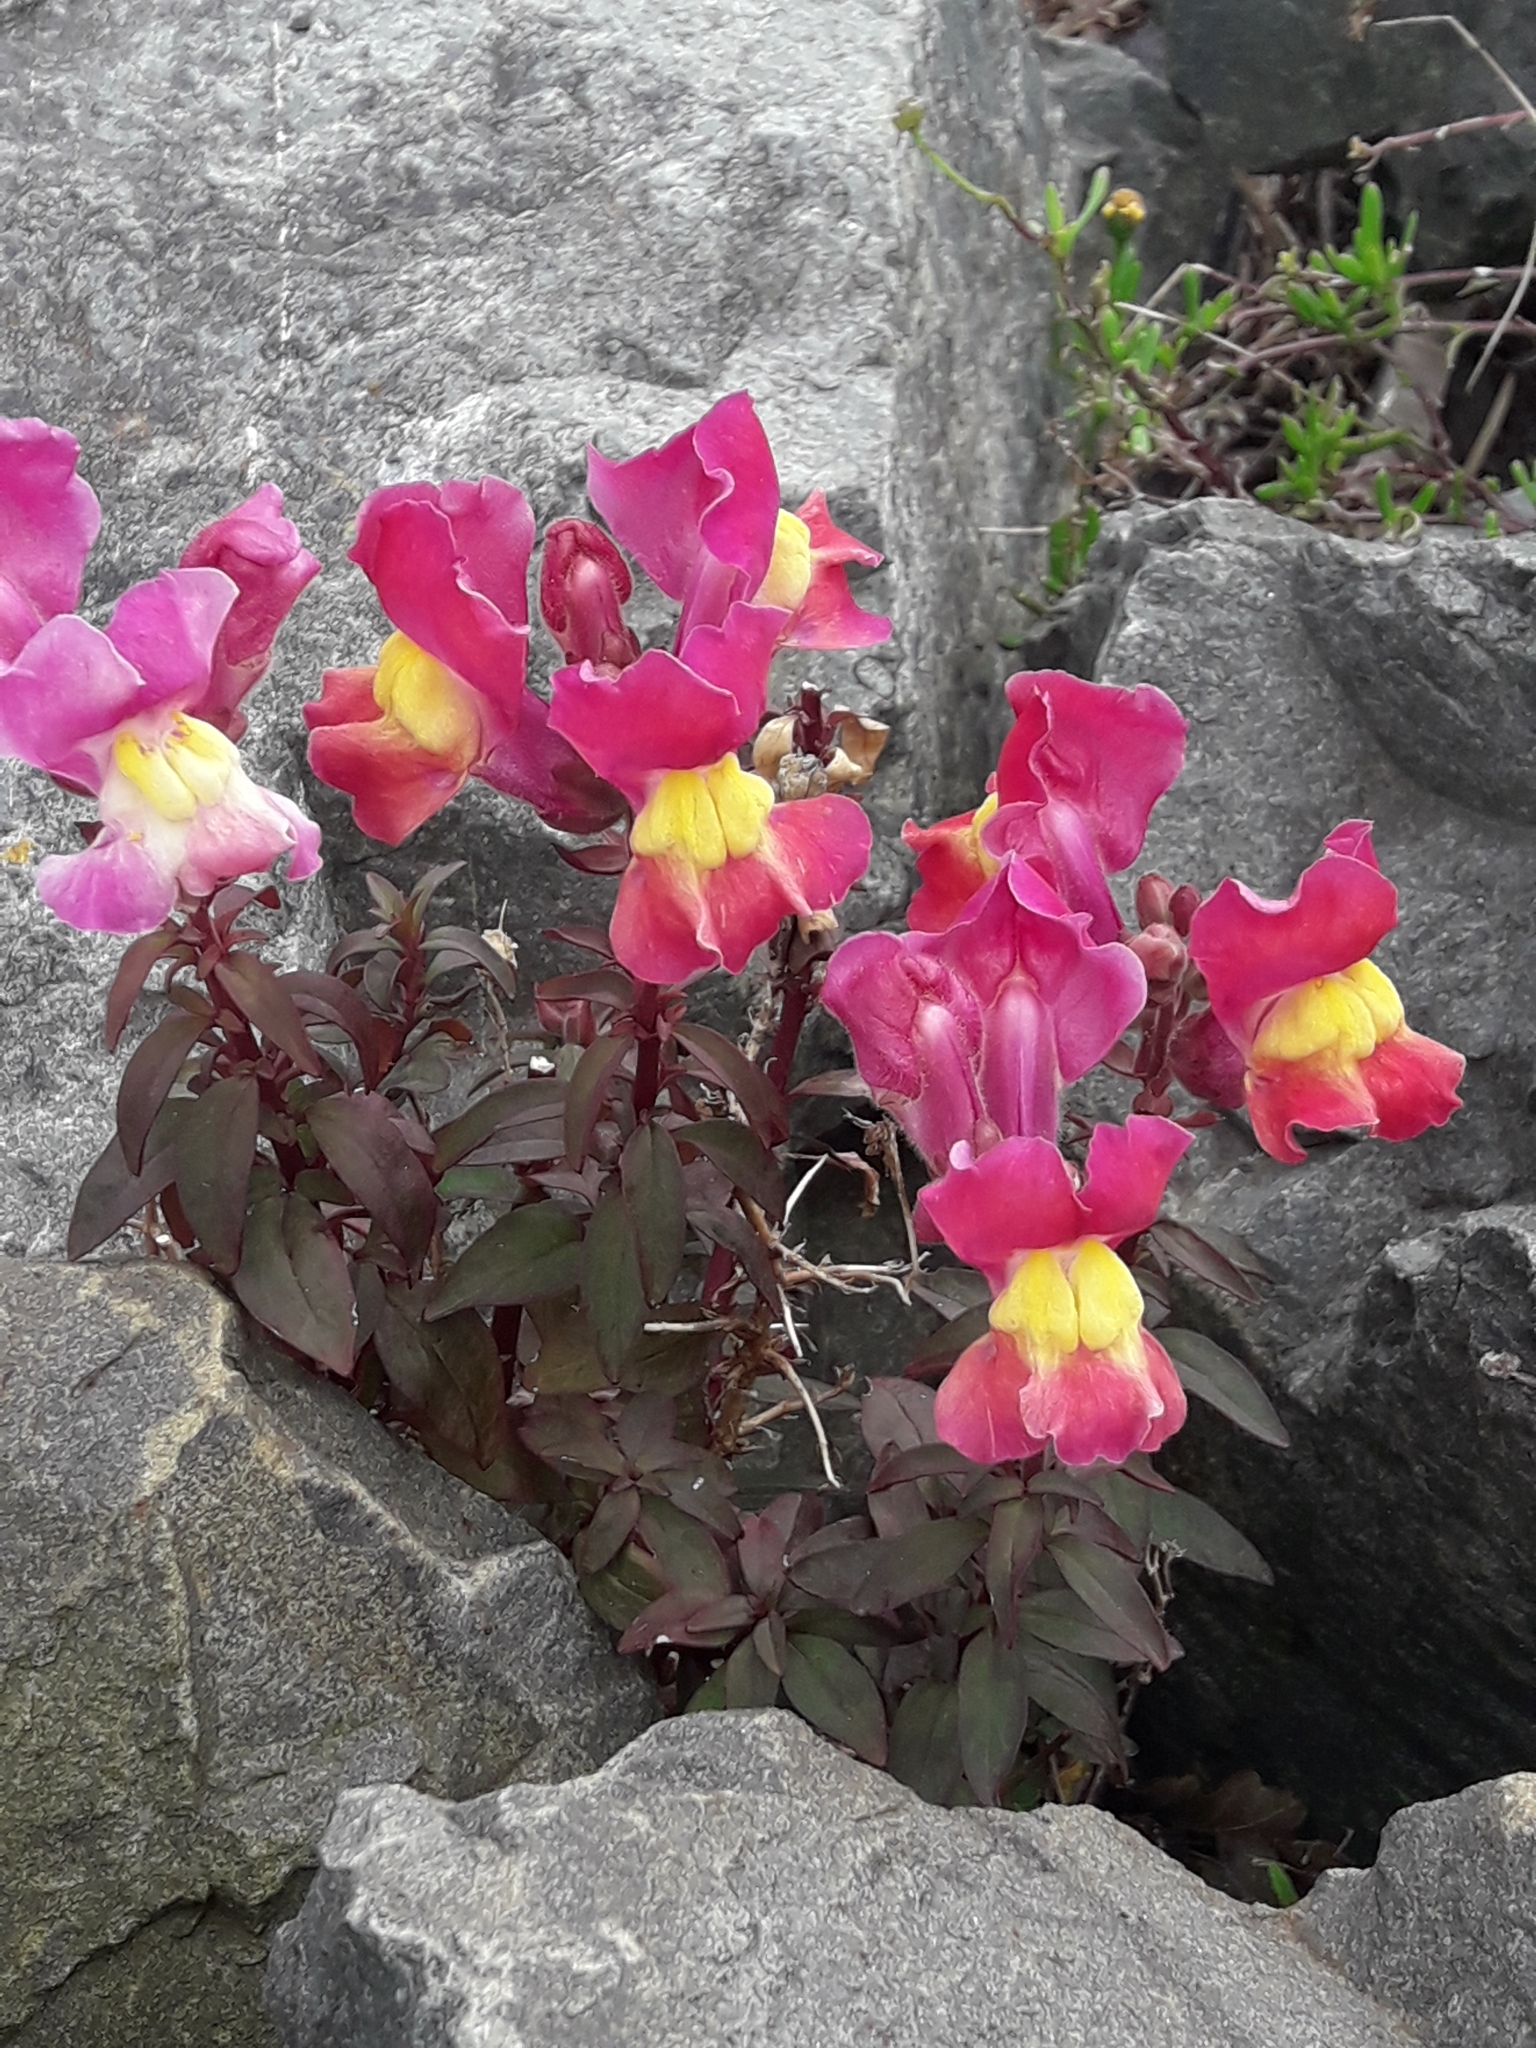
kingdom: Plantae
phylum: Tracheophyta
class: Magnoliopsida
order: Lamiales
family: Plantaginaceae
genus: Antirrhinum
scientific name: Antirrhinum majus
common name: Snapdragon
